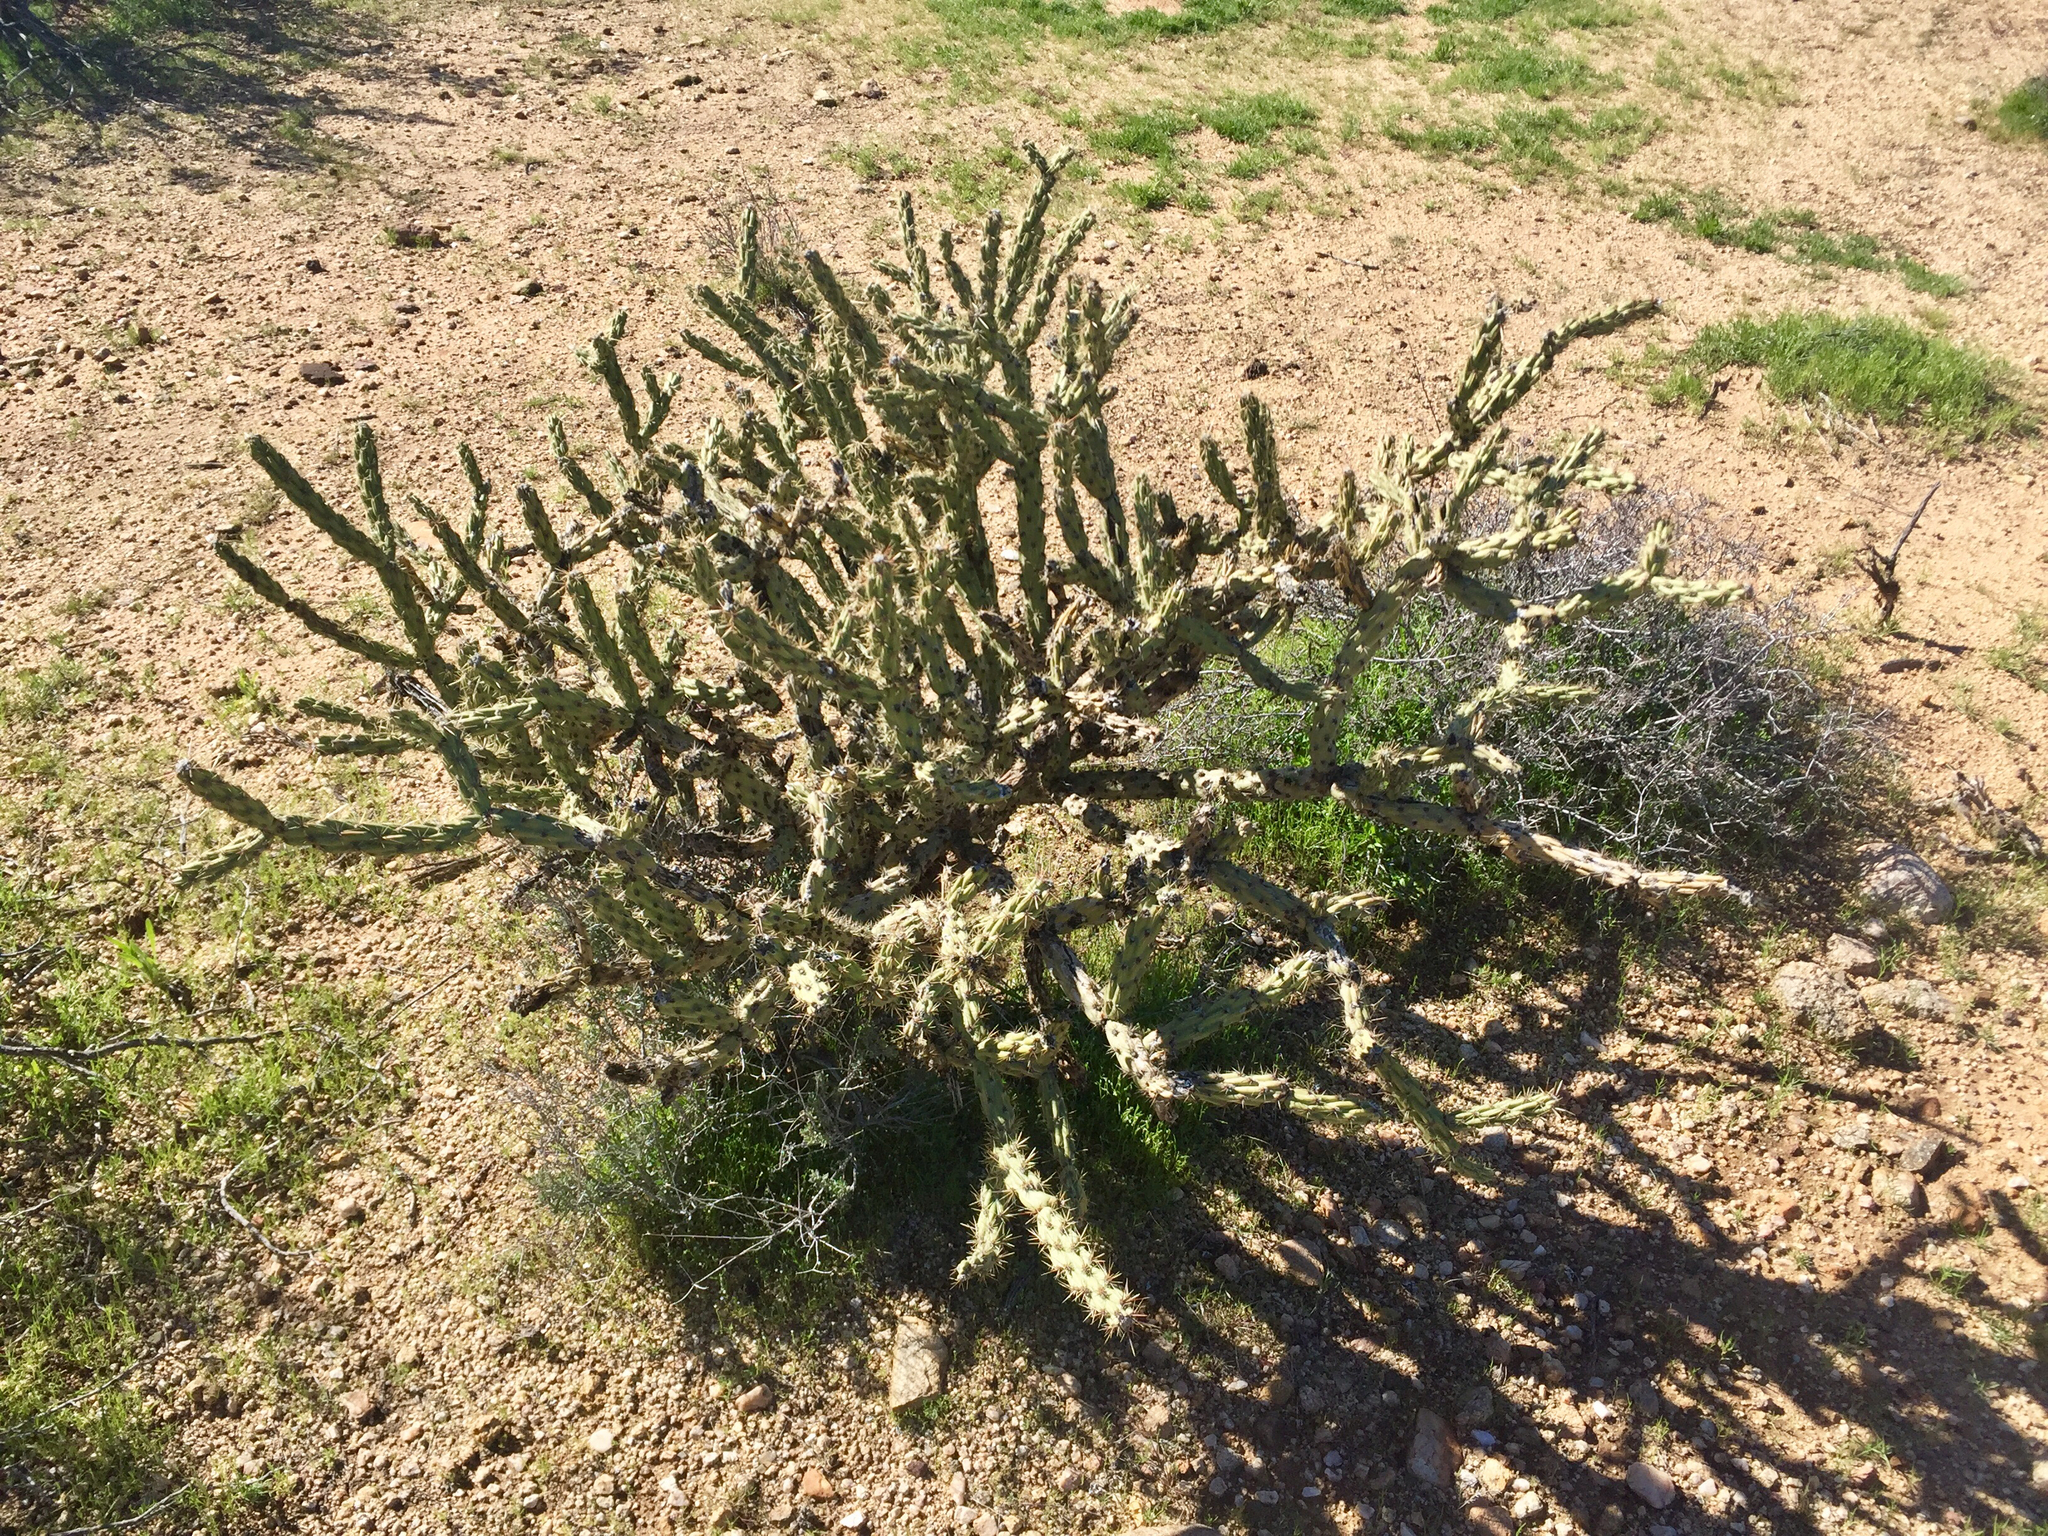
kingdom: Plantae
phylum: Tracheophyta
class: Magnoliopsida
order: Caryophyllales
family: Cactaceae
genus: Cylindropuntia
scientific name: Cylindropuntia acanthocarpa
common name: Buckhorn cholla
